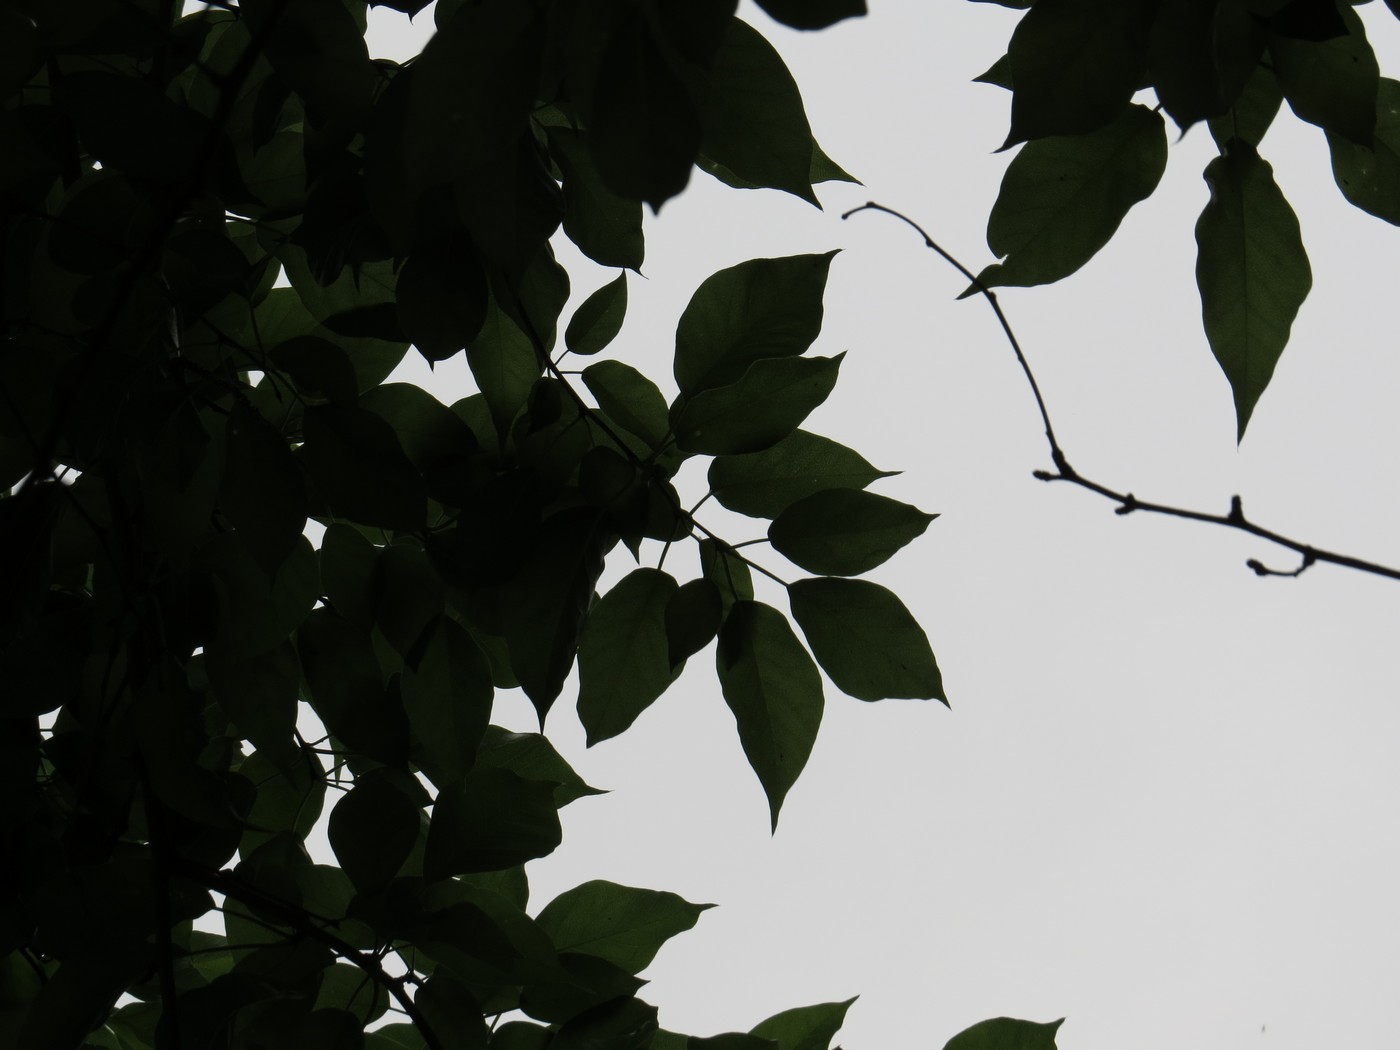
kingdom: Plantae
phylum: Tracheophyta
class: Magnoliopsida
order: Rosales
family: Moraceae
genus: Maclura
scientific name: Maclura pomifera
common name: Osage-orange
